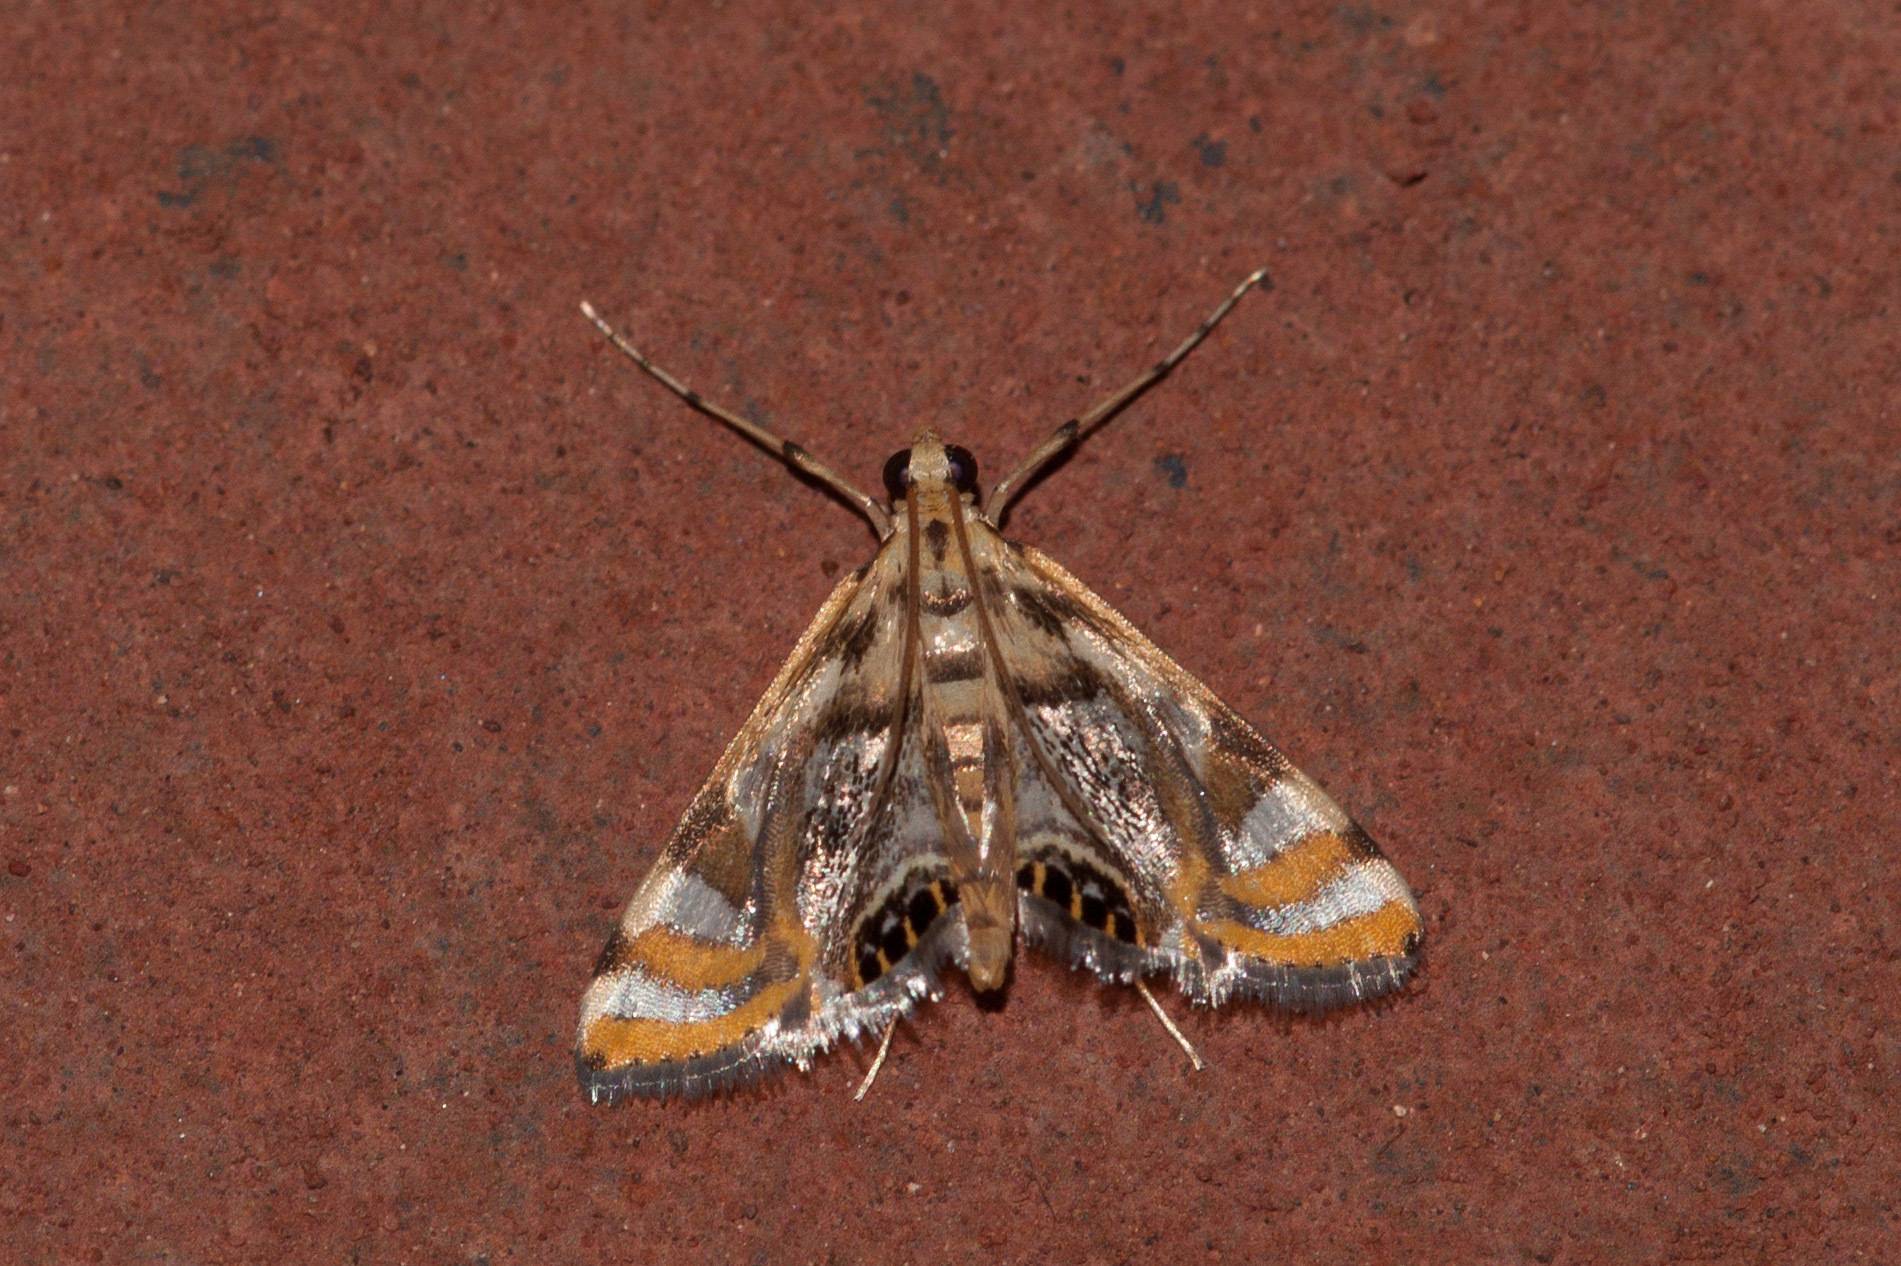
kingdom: Animalia
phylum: Arthropoda
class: Insecta
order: Lepidoptera
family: Crambidae
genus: Margarosticha
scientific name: Margarosticha repetitalis
